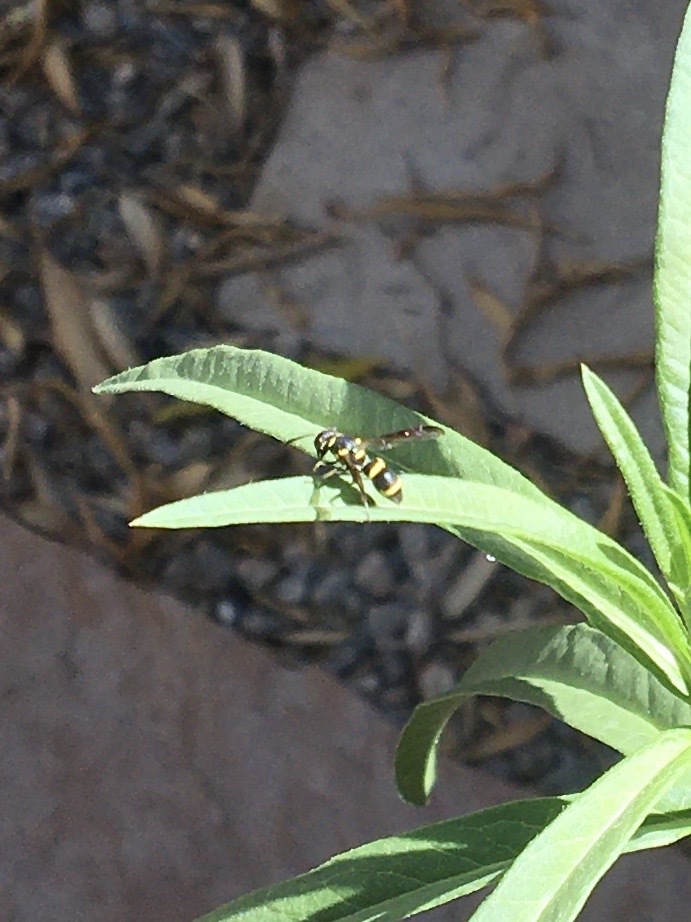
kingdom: Animalia
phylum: Arthropoda
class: Insecta
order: Hymenoptera
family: Eumenidae
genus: Parancistrocerus
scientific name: Parancistrocerus declivatus
